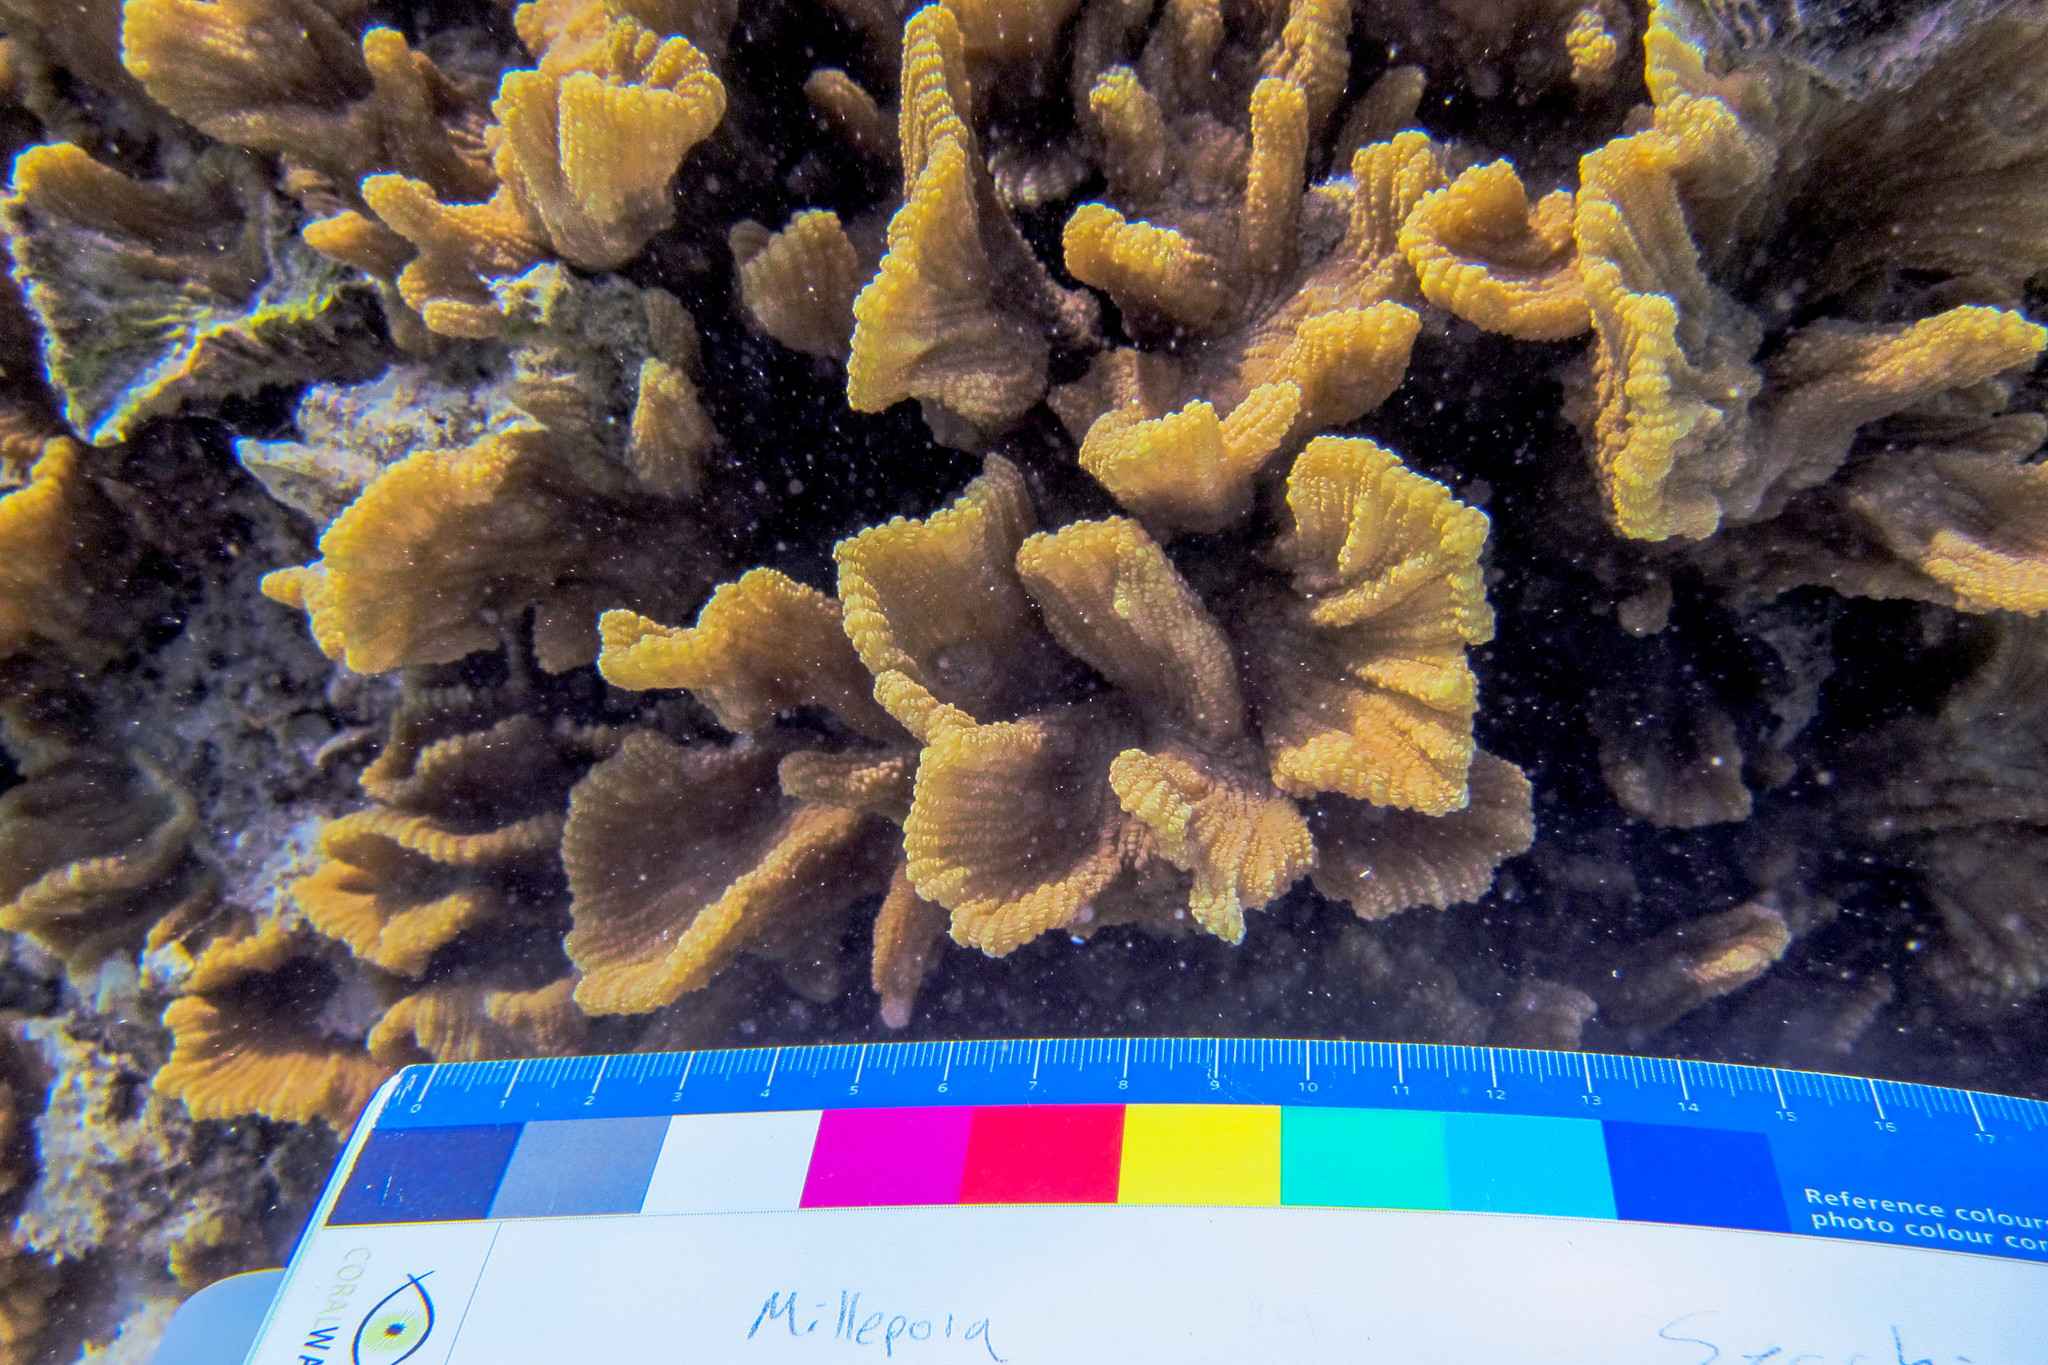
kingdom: Animalia
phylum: Cnidaria
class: Anthozoa
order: Scleractinia
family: Merulinidae
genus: Pectinia
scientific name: Pectinia paeonia
